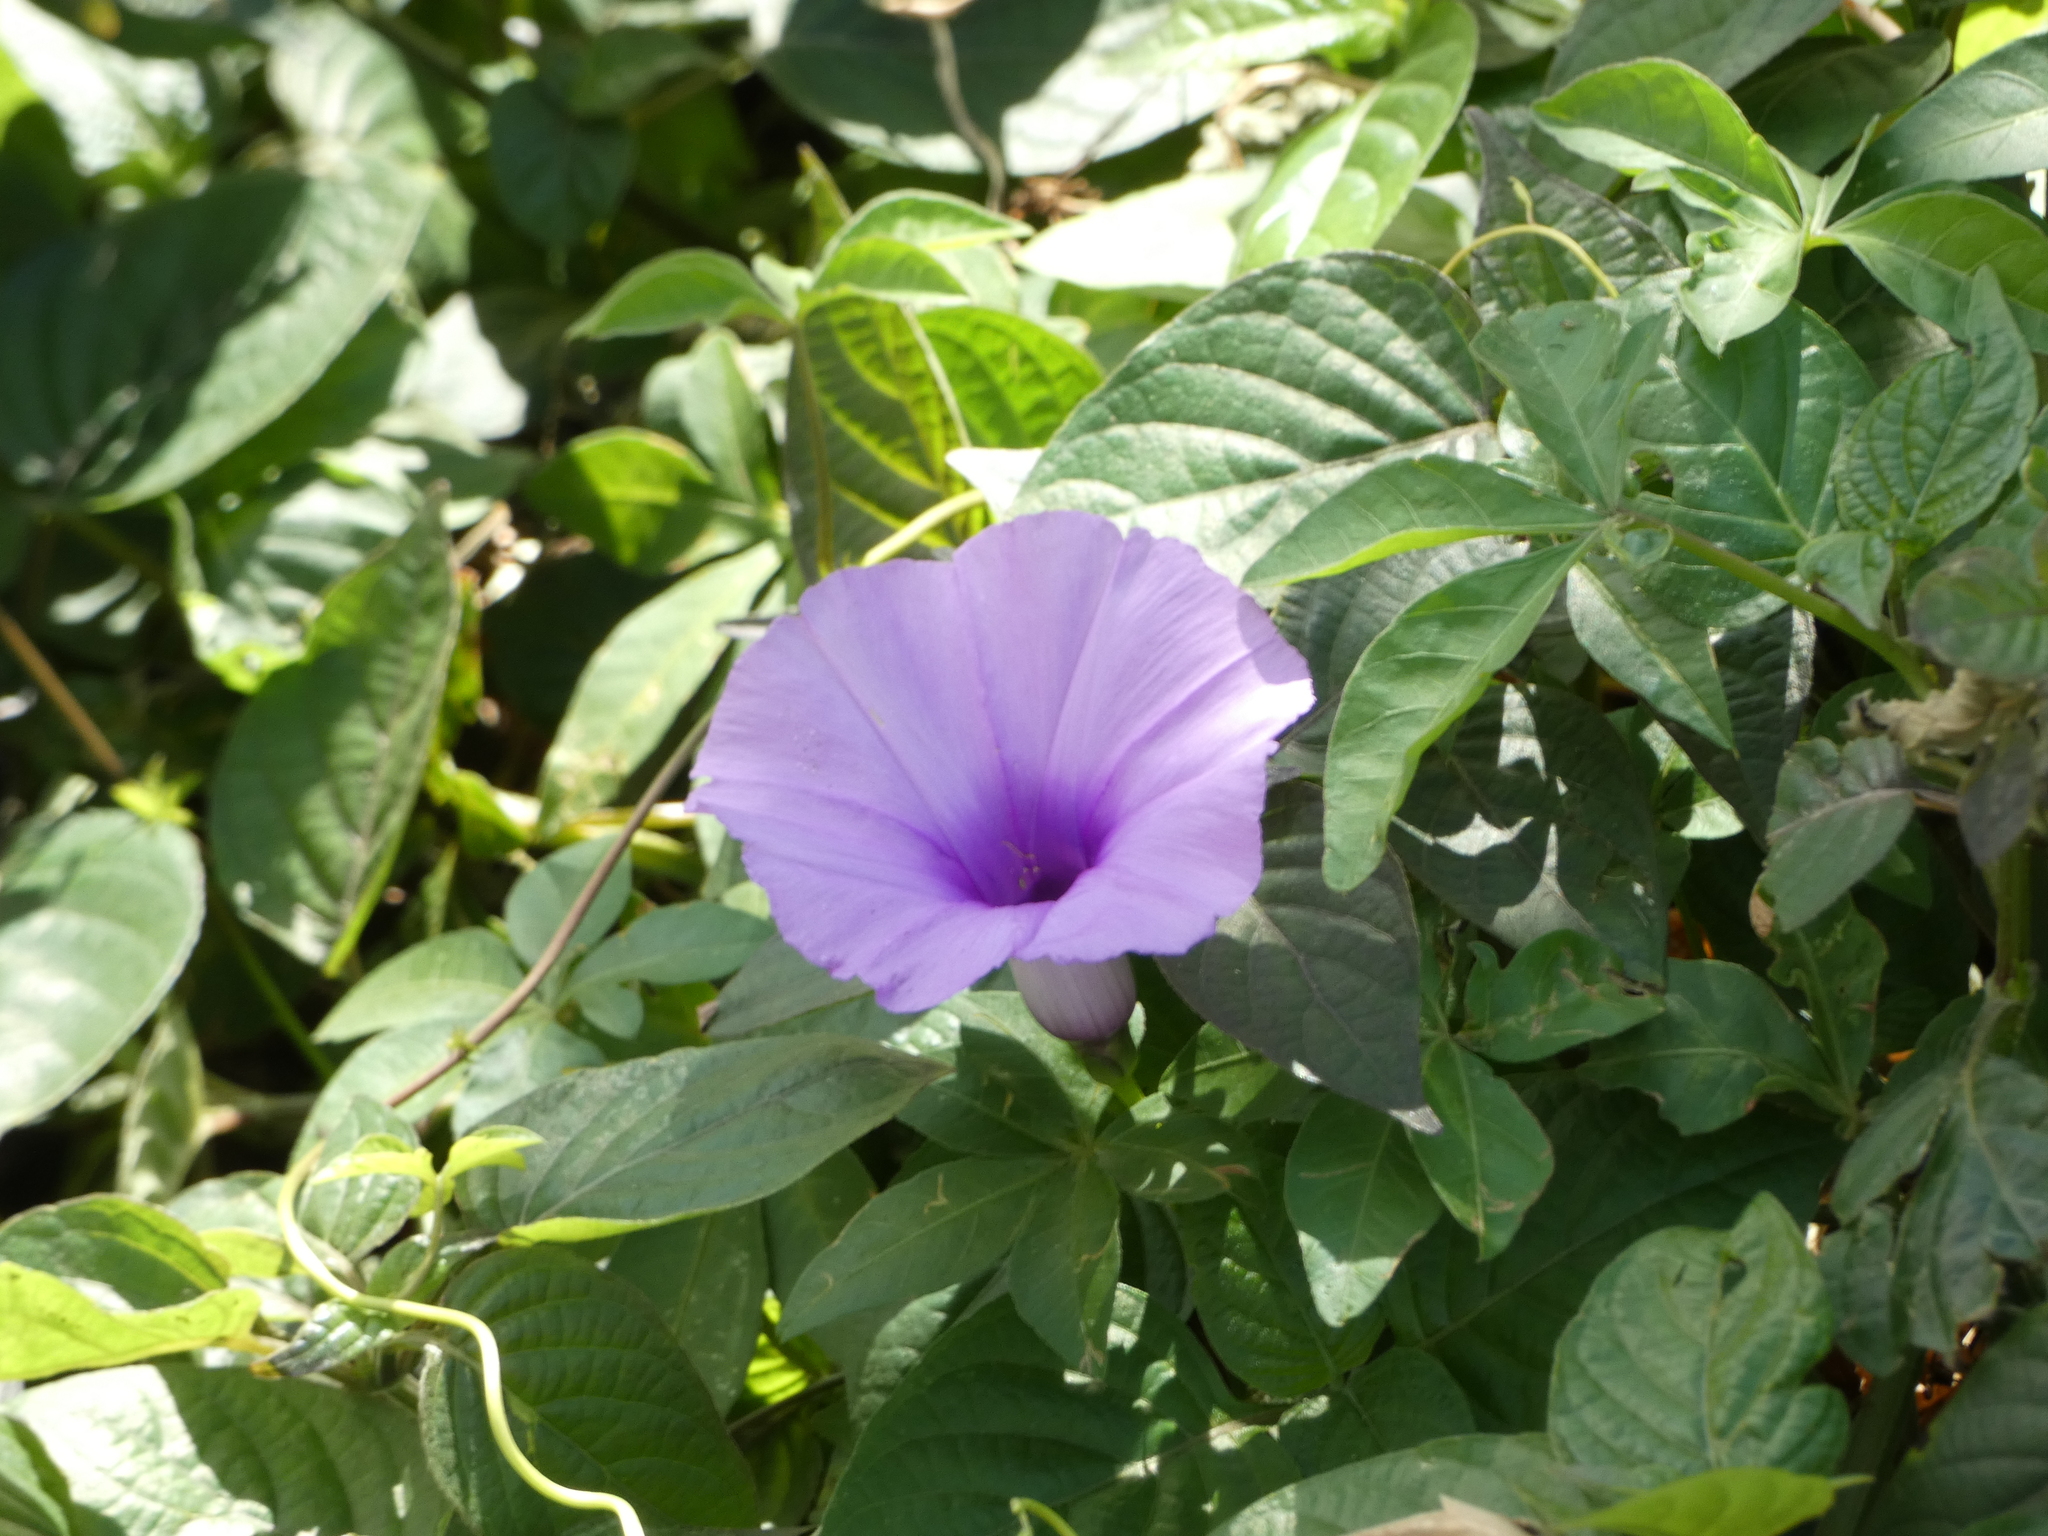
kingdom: Plantae
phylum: Tracheophyta
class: Magnoliopsida
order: Solanales
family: Convolvulaceae
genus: Ipomoea
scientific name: Ipomoea cairica
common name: Mile a minute vine
